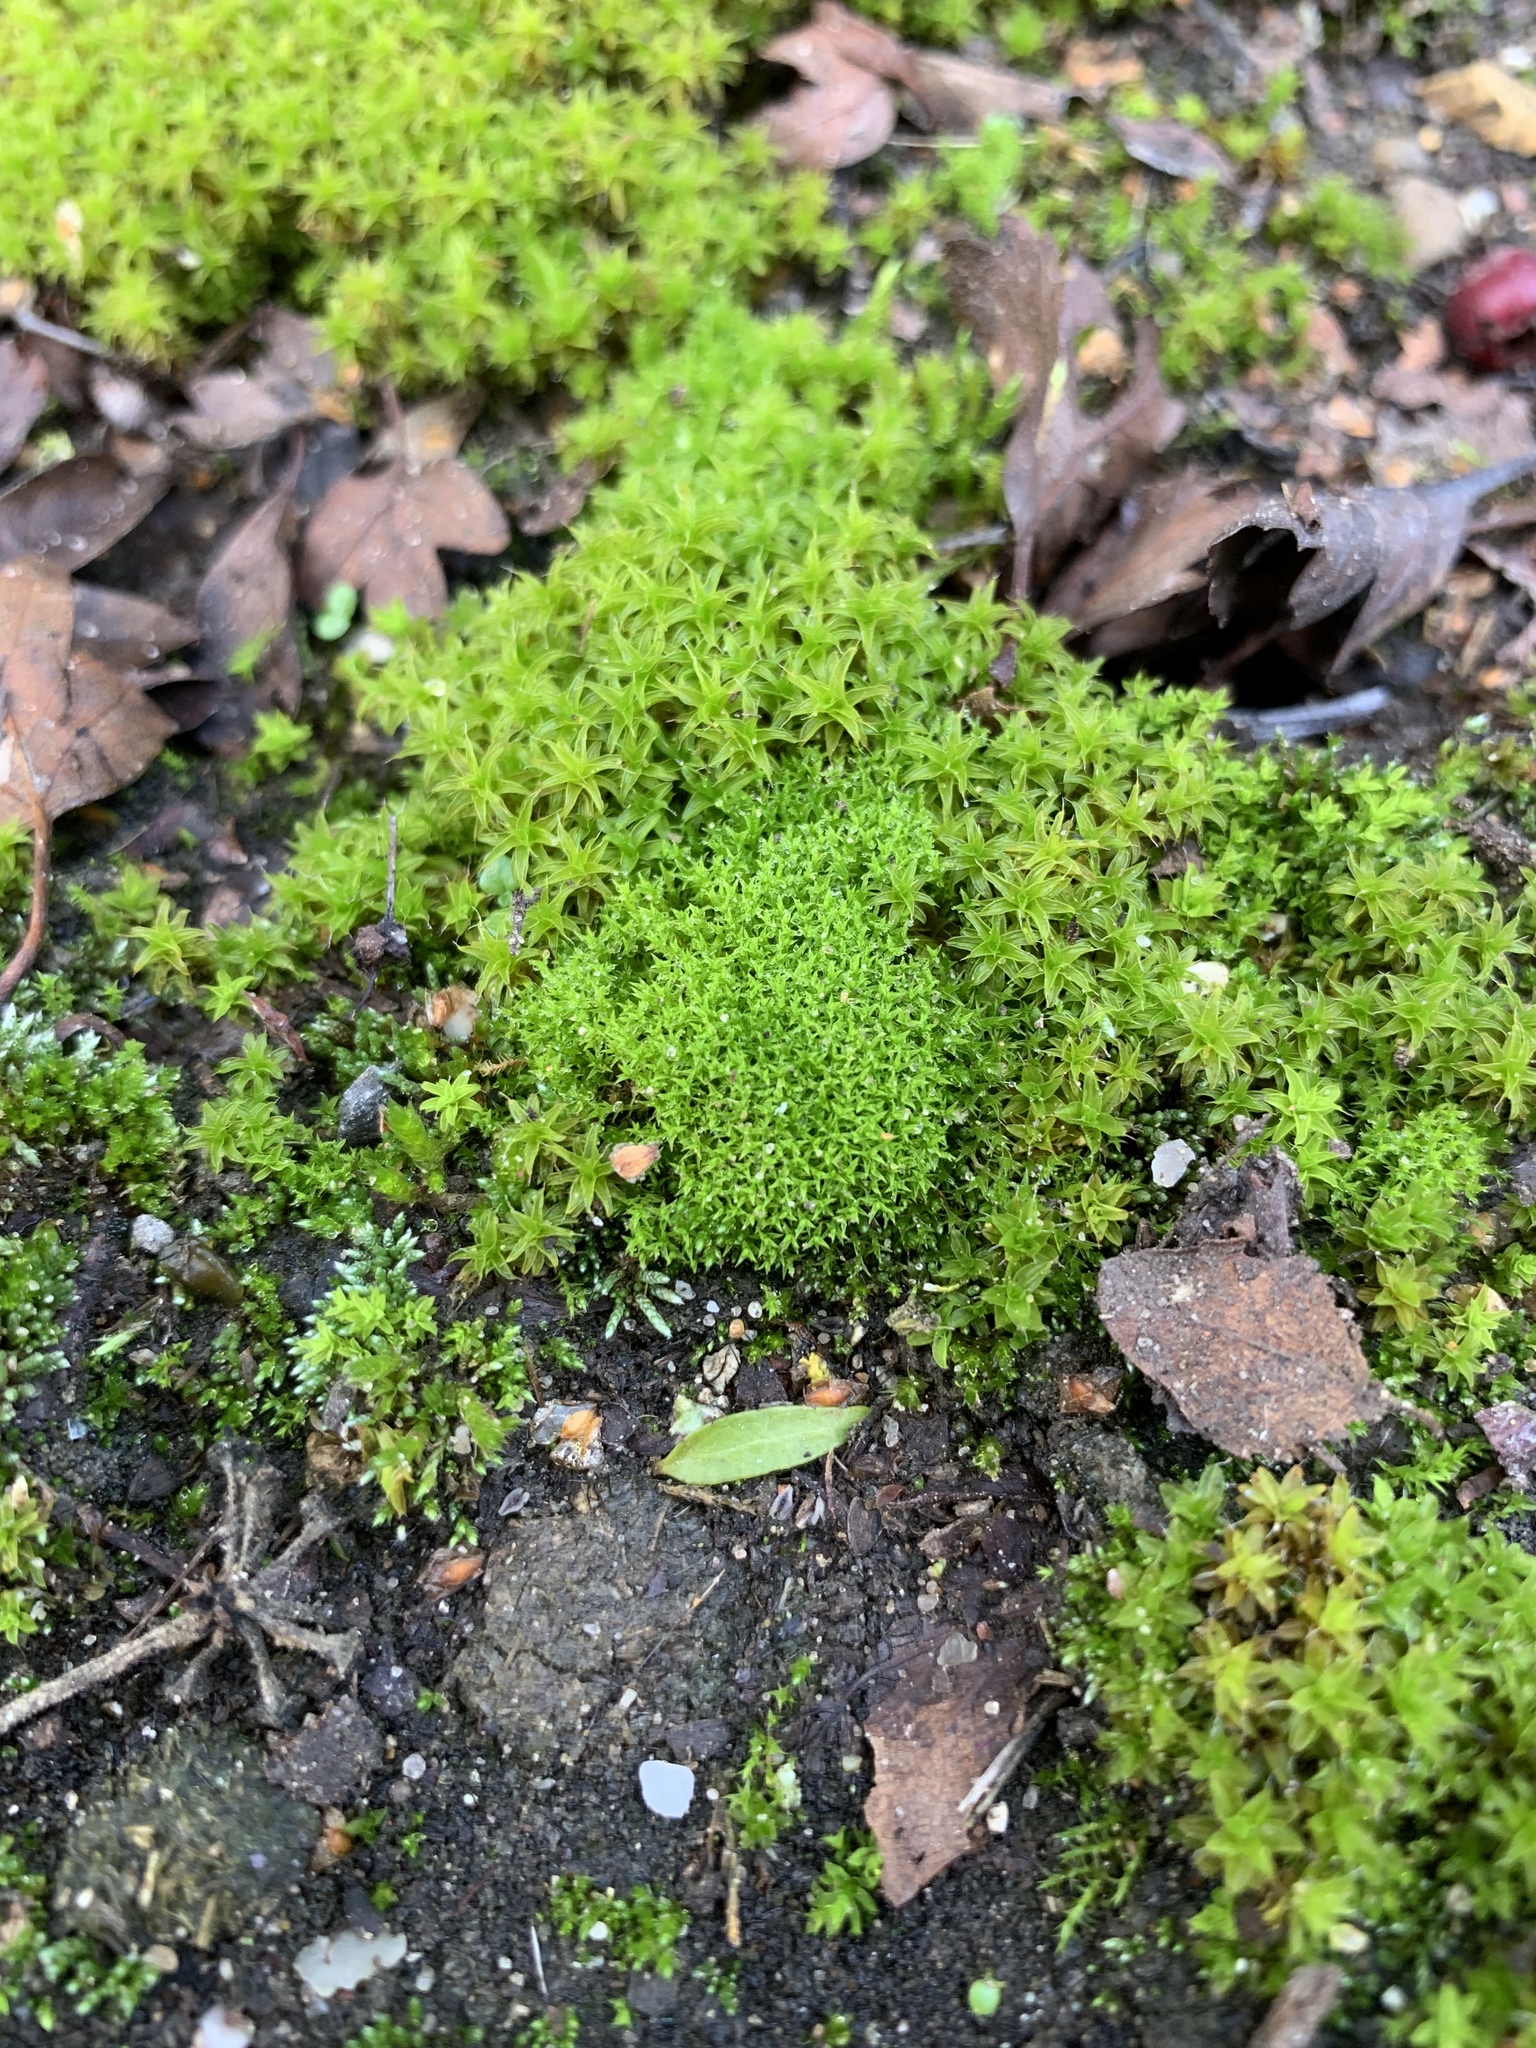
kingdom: Plantae
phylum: Bryophyta
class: Bryopsida
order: Pottiales
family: Pottiaceae
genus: Pseudocrossidium
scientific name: Pseudocrossidium hornschuchianum
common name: Hornschuch's beard-moss
